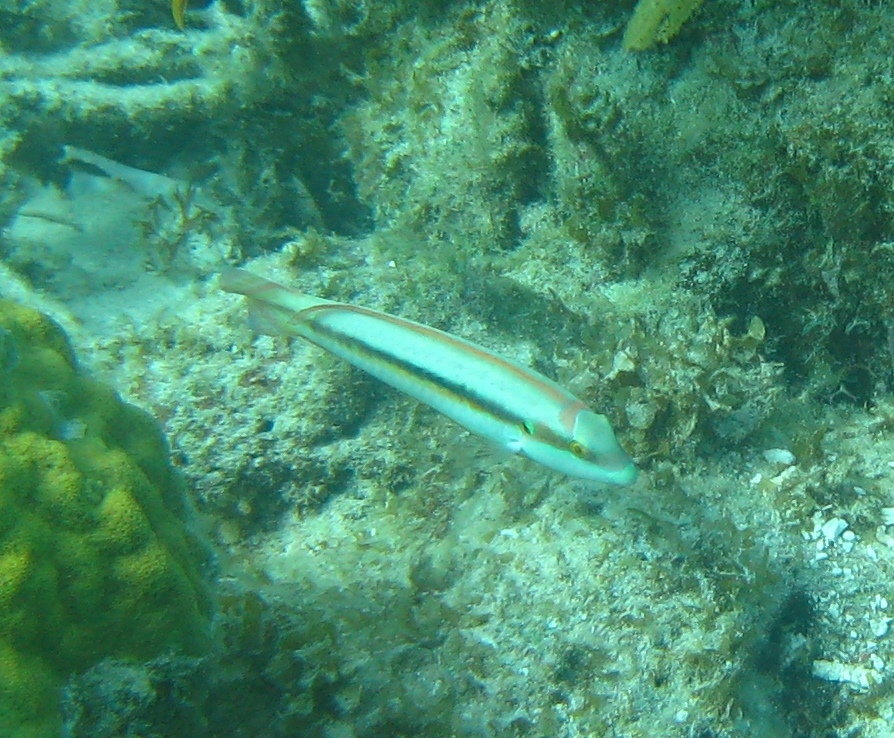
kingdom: Animalia
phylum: Chordata
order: Perciformes
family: Labridae
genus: Halichoeres
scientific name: Halichoeres bivittatus
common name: Slippery dick
